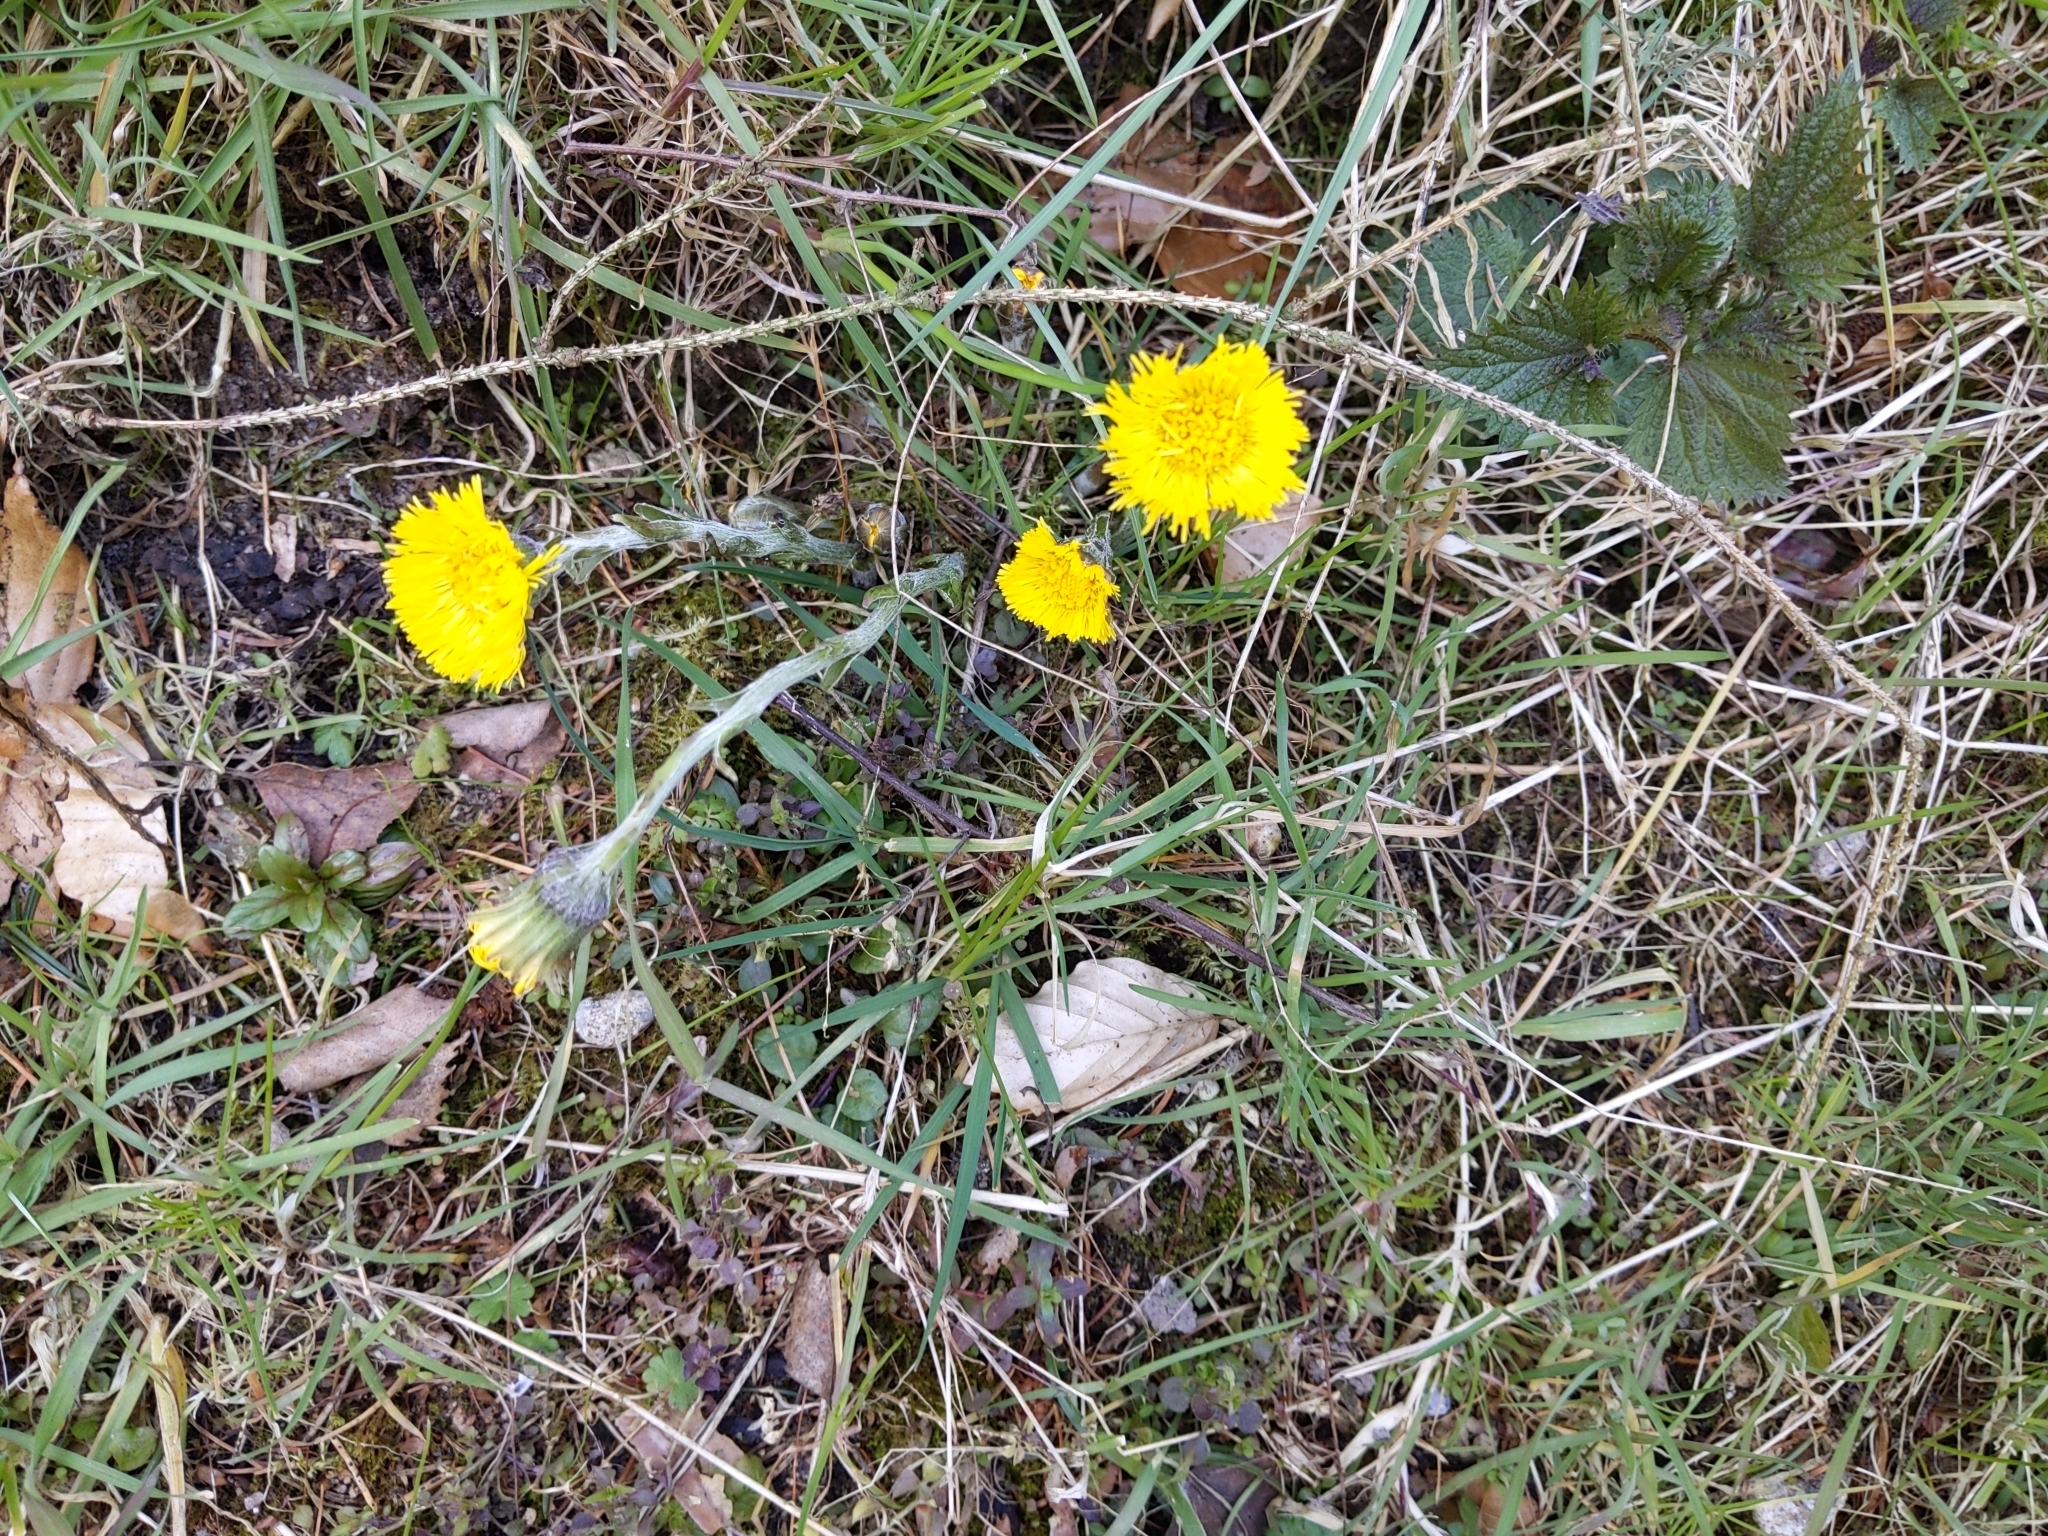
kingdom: Plantae
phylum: Tracheophyta
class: Magnoliopsida
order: Asterales
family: Asteraceae
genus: Tussilago
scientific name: Tussilago farfara
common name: Coltsfoot
